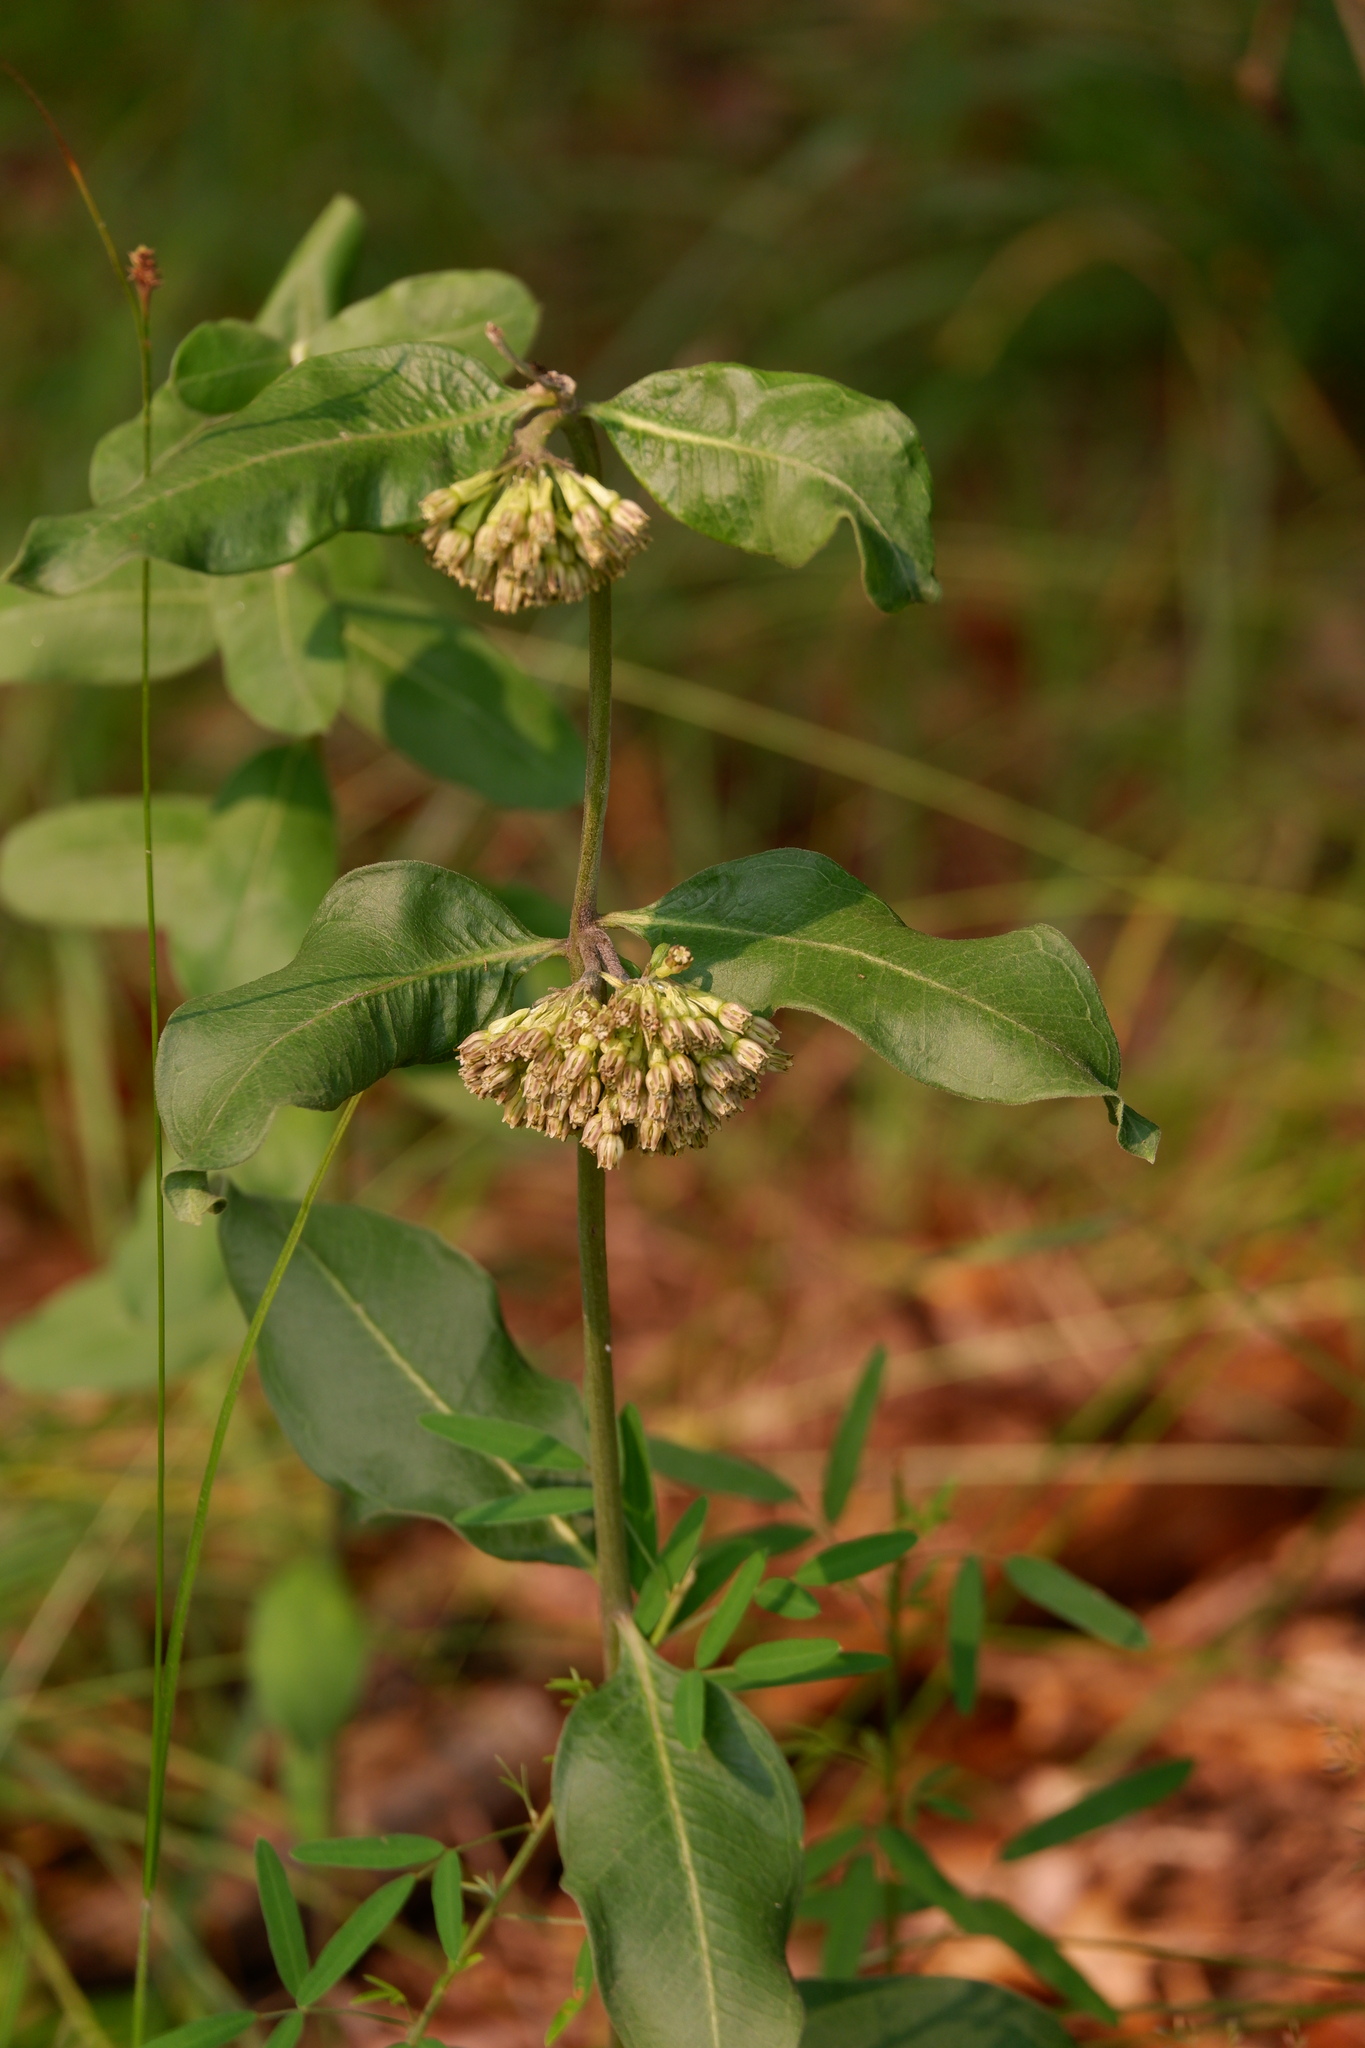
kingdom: Plantae
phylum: Tracheophyta
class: Magnoliopsida
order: Gentianales
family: Apocynaceae
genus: Asclepias
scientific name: Asclepias viridiflora
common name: Green comet milkweed
